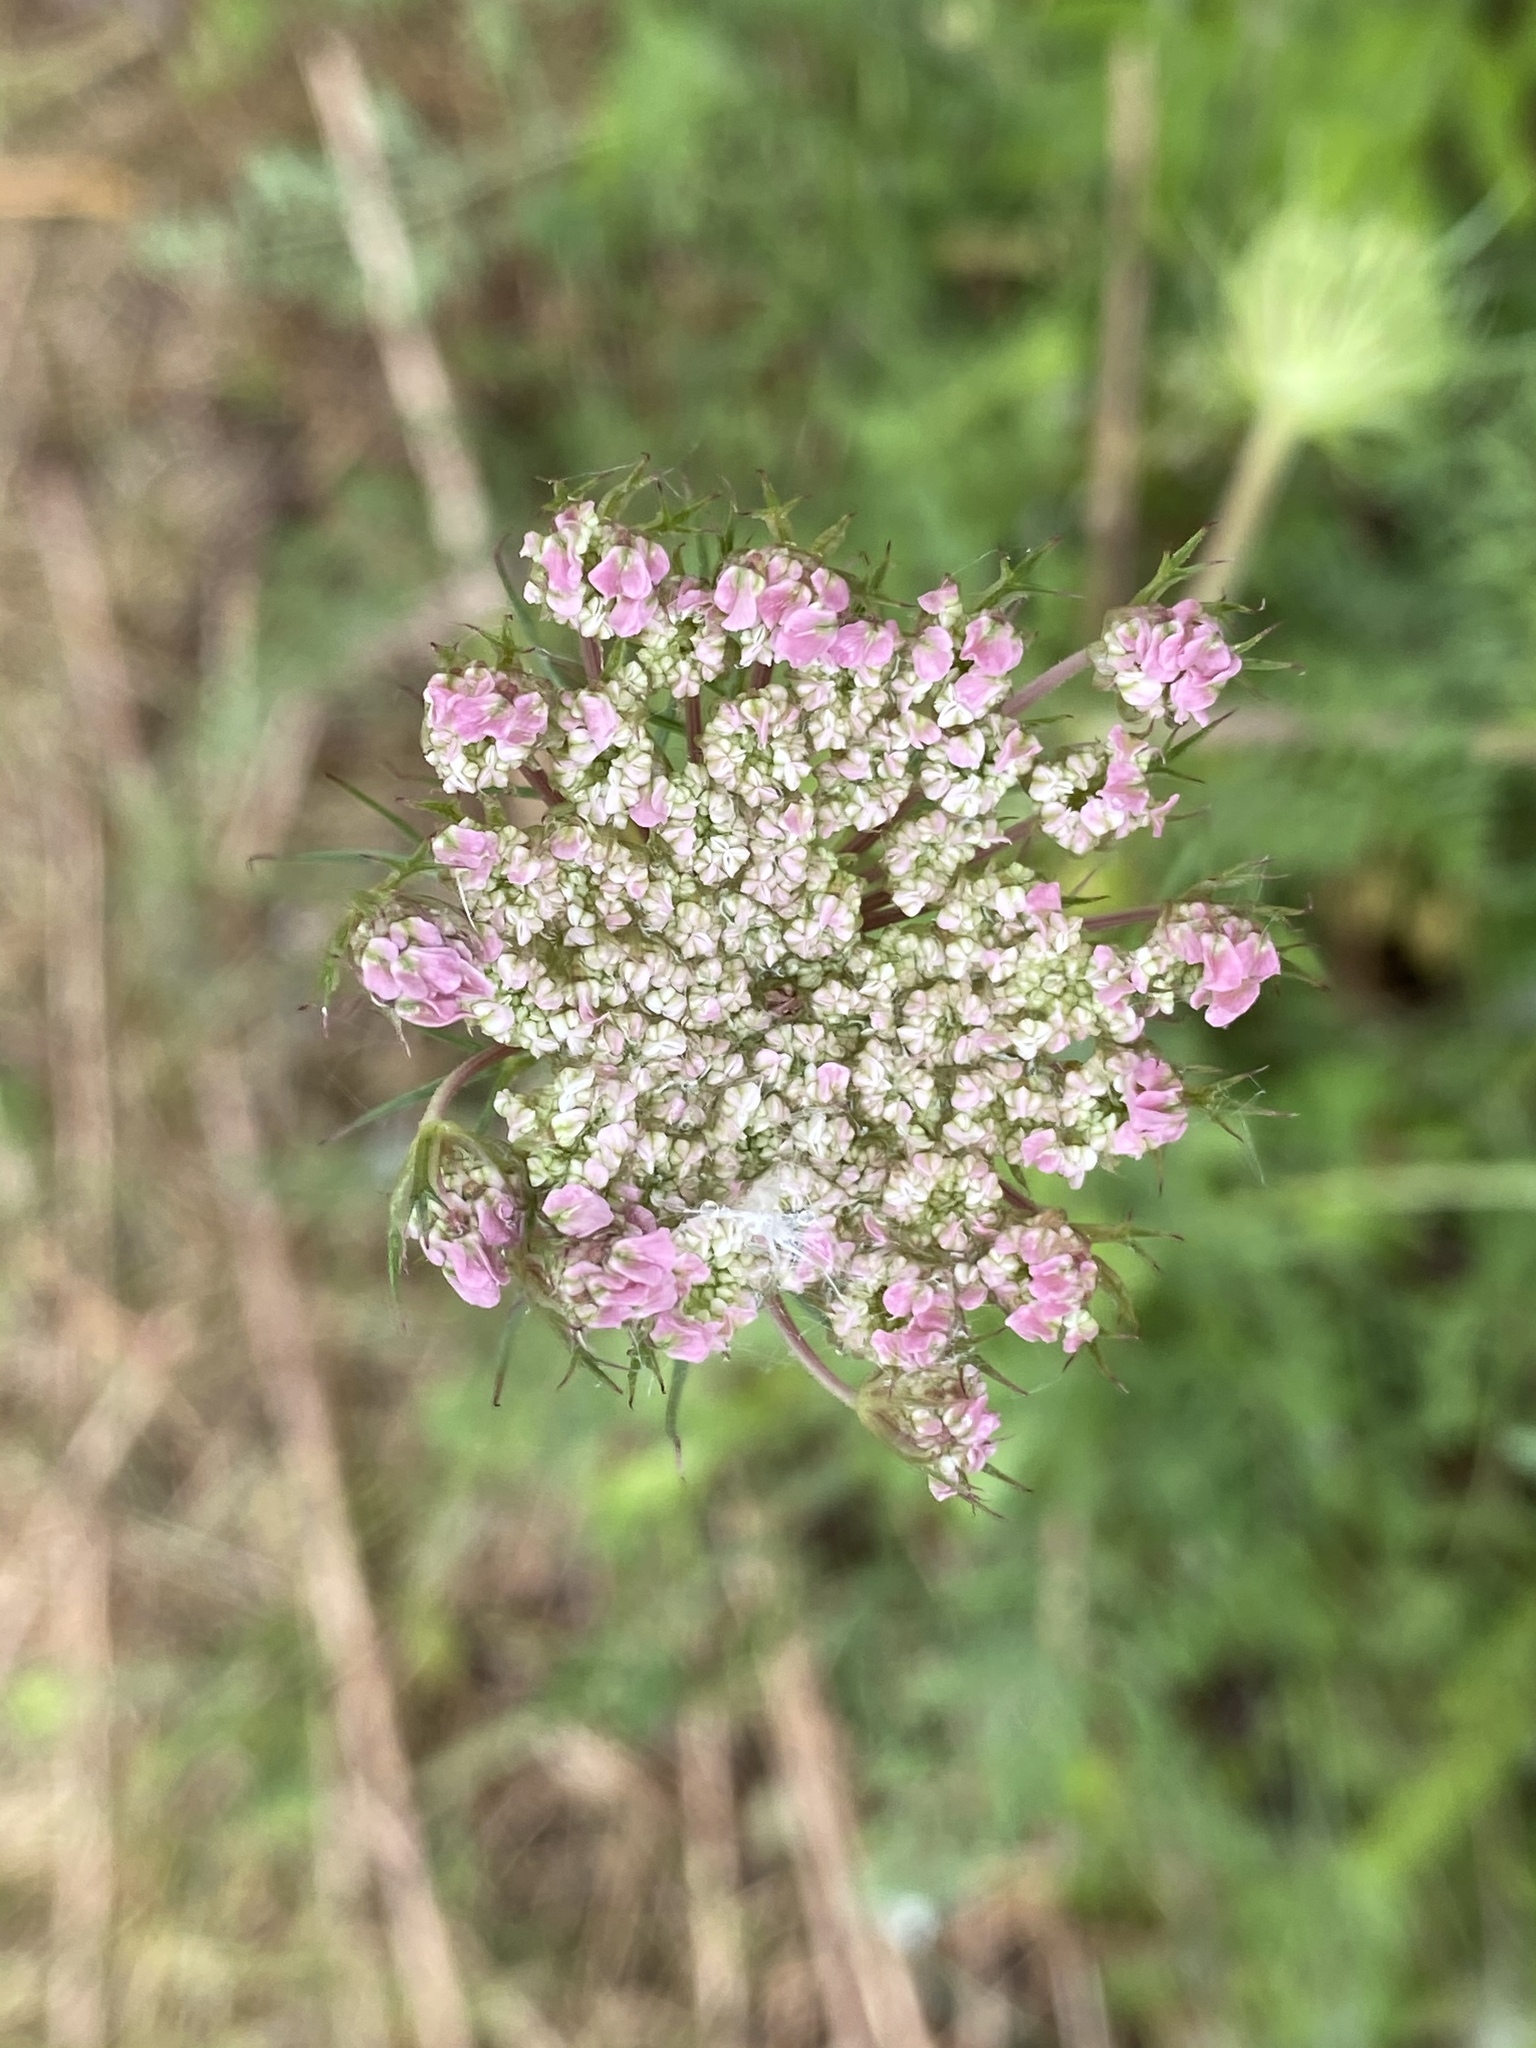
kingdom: Plantae
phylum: Tracheophyta
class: Magnoliopsida
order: Apiales
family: Apiaceae
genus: Daucus
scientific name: Daucus carota
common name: Wild carrot
